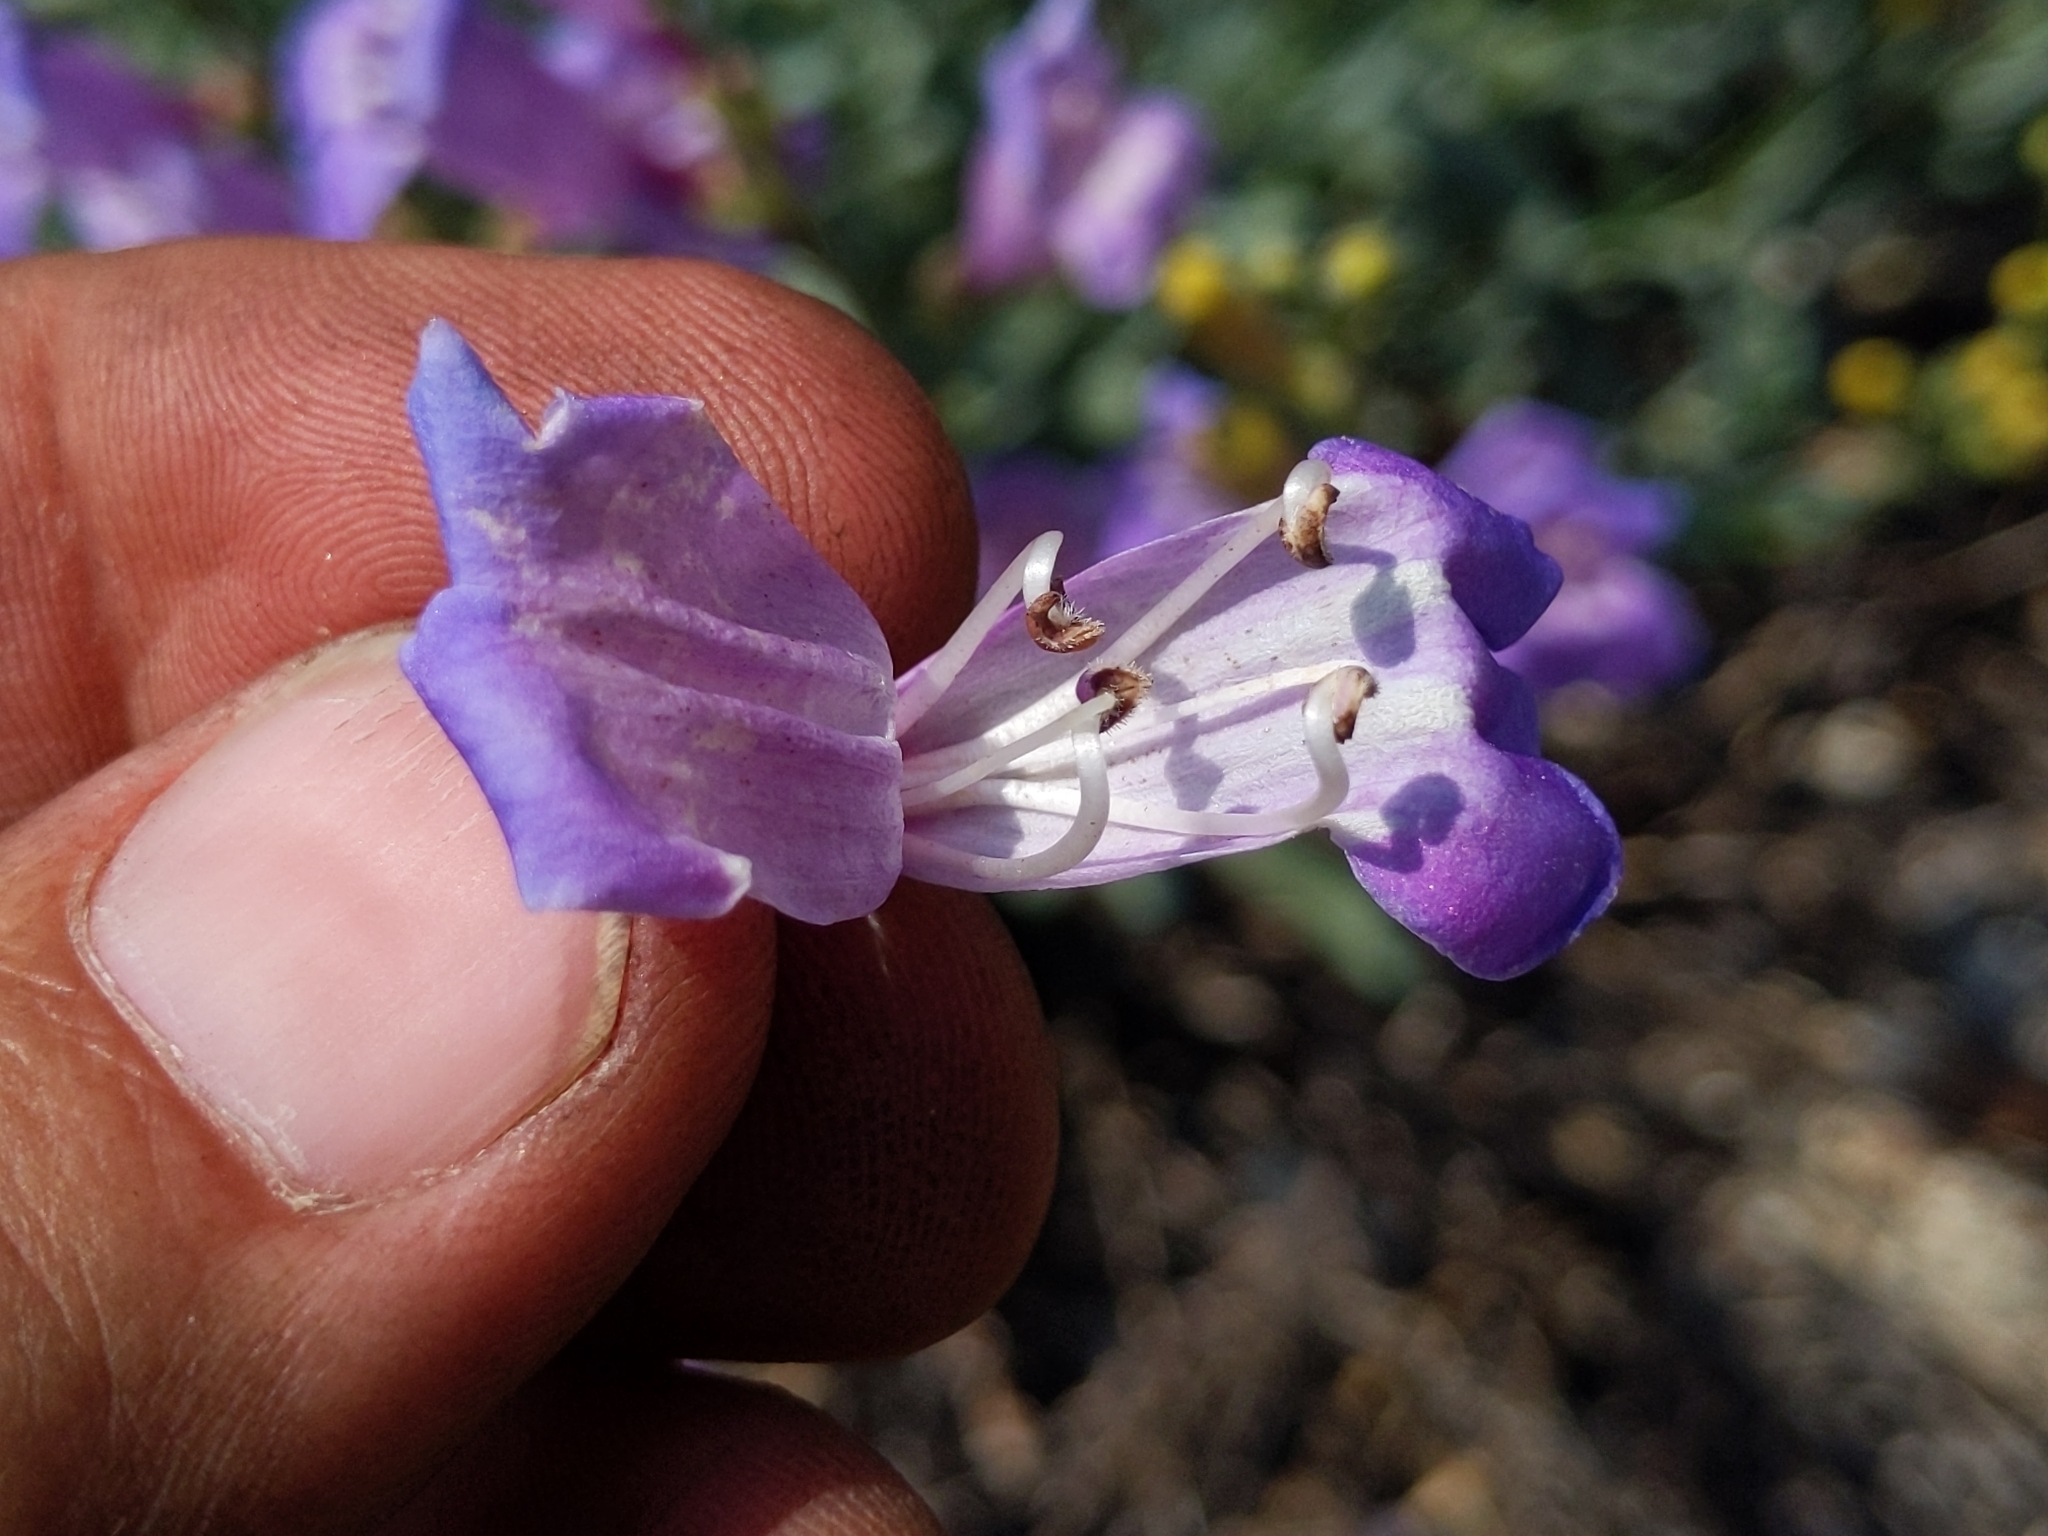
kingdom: Plantae
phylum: Tracheophyta
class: Magnoliopsida
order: Lamiales
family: Plantaginaceae
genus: Penstemon
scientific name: Penstemon azureus
